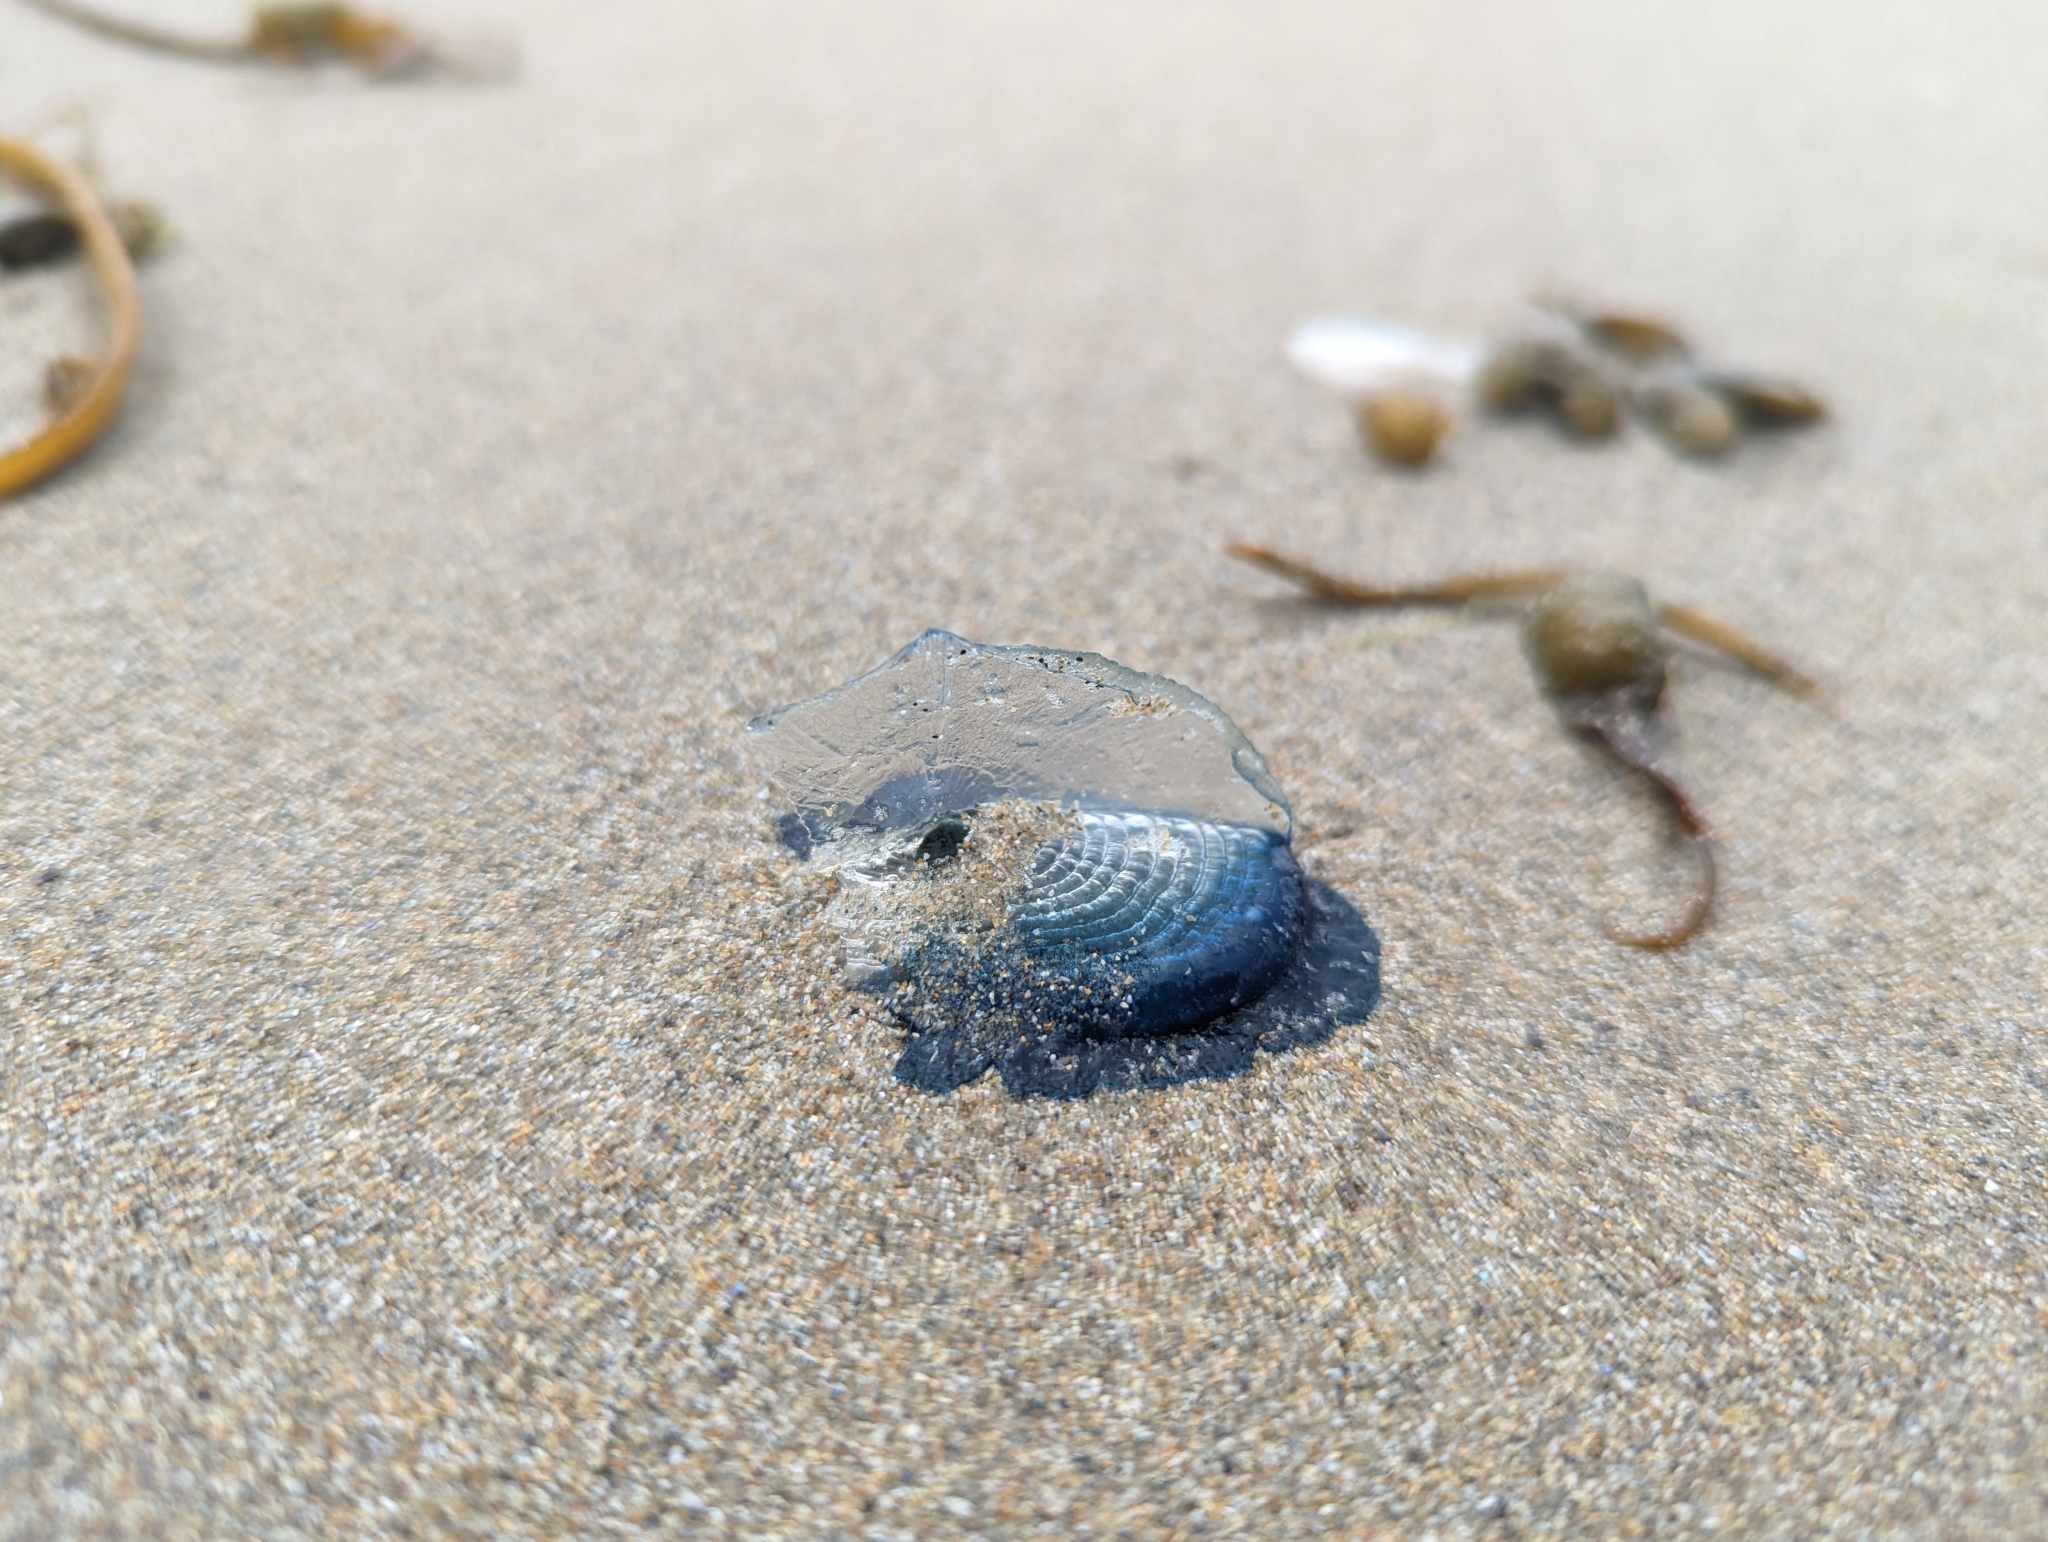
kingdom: Animalia
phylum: Cnidaria
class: Hydrozoa
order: Anthoathecata
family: Porpitidae
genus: Velella
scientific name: Velella velella
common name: By-the-wind-sailor
